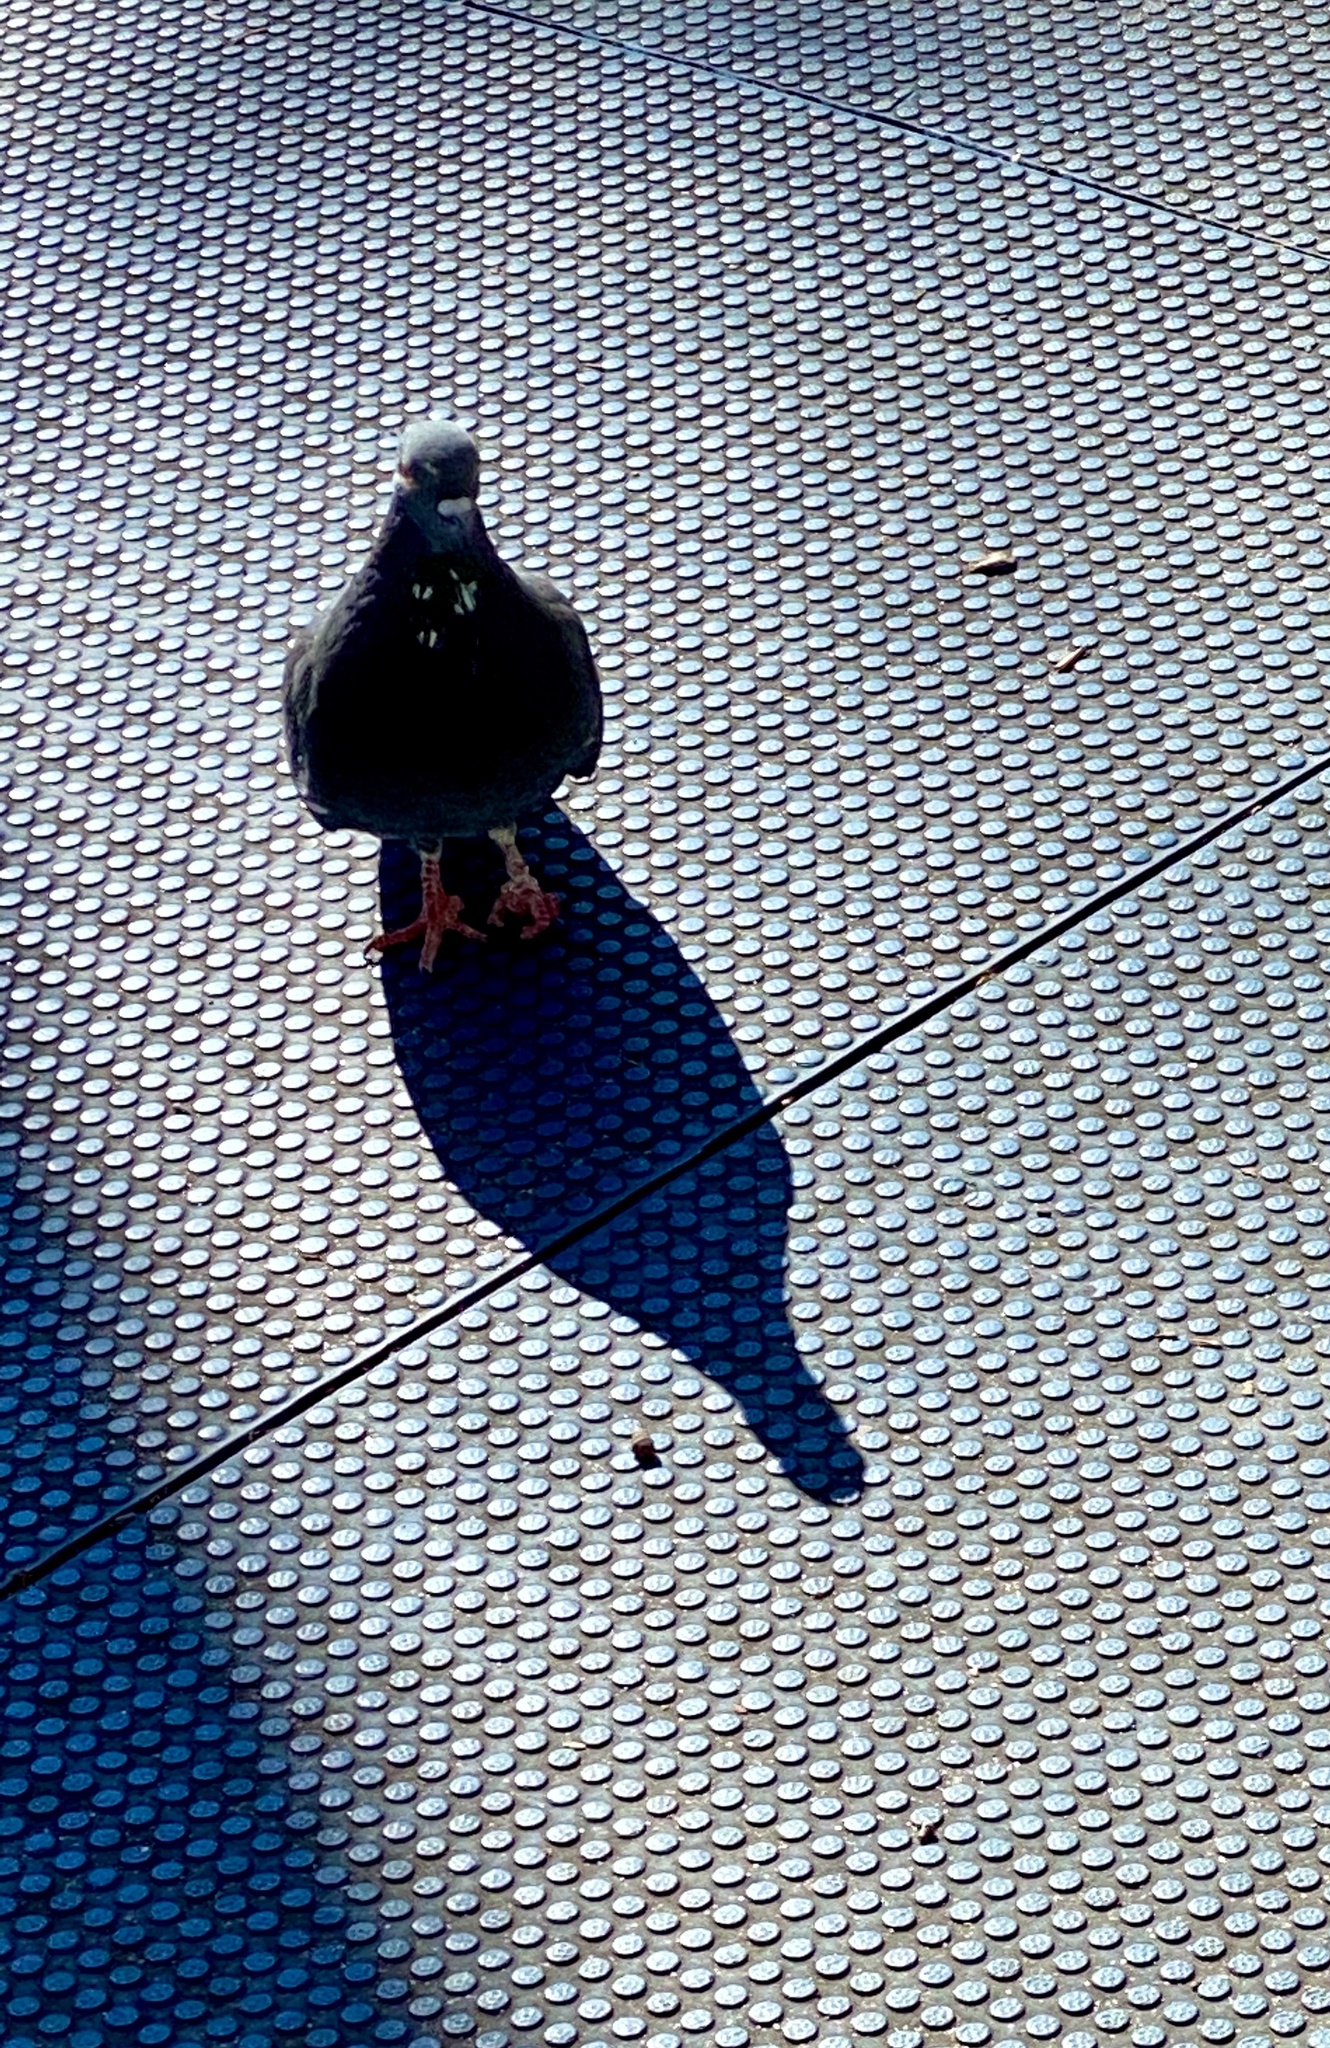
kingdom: Animalia
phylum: Chordata
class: Aves
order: Columbiformes
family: Columbidae
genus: Columba
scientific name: Columba livia
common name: Rock pigeon
